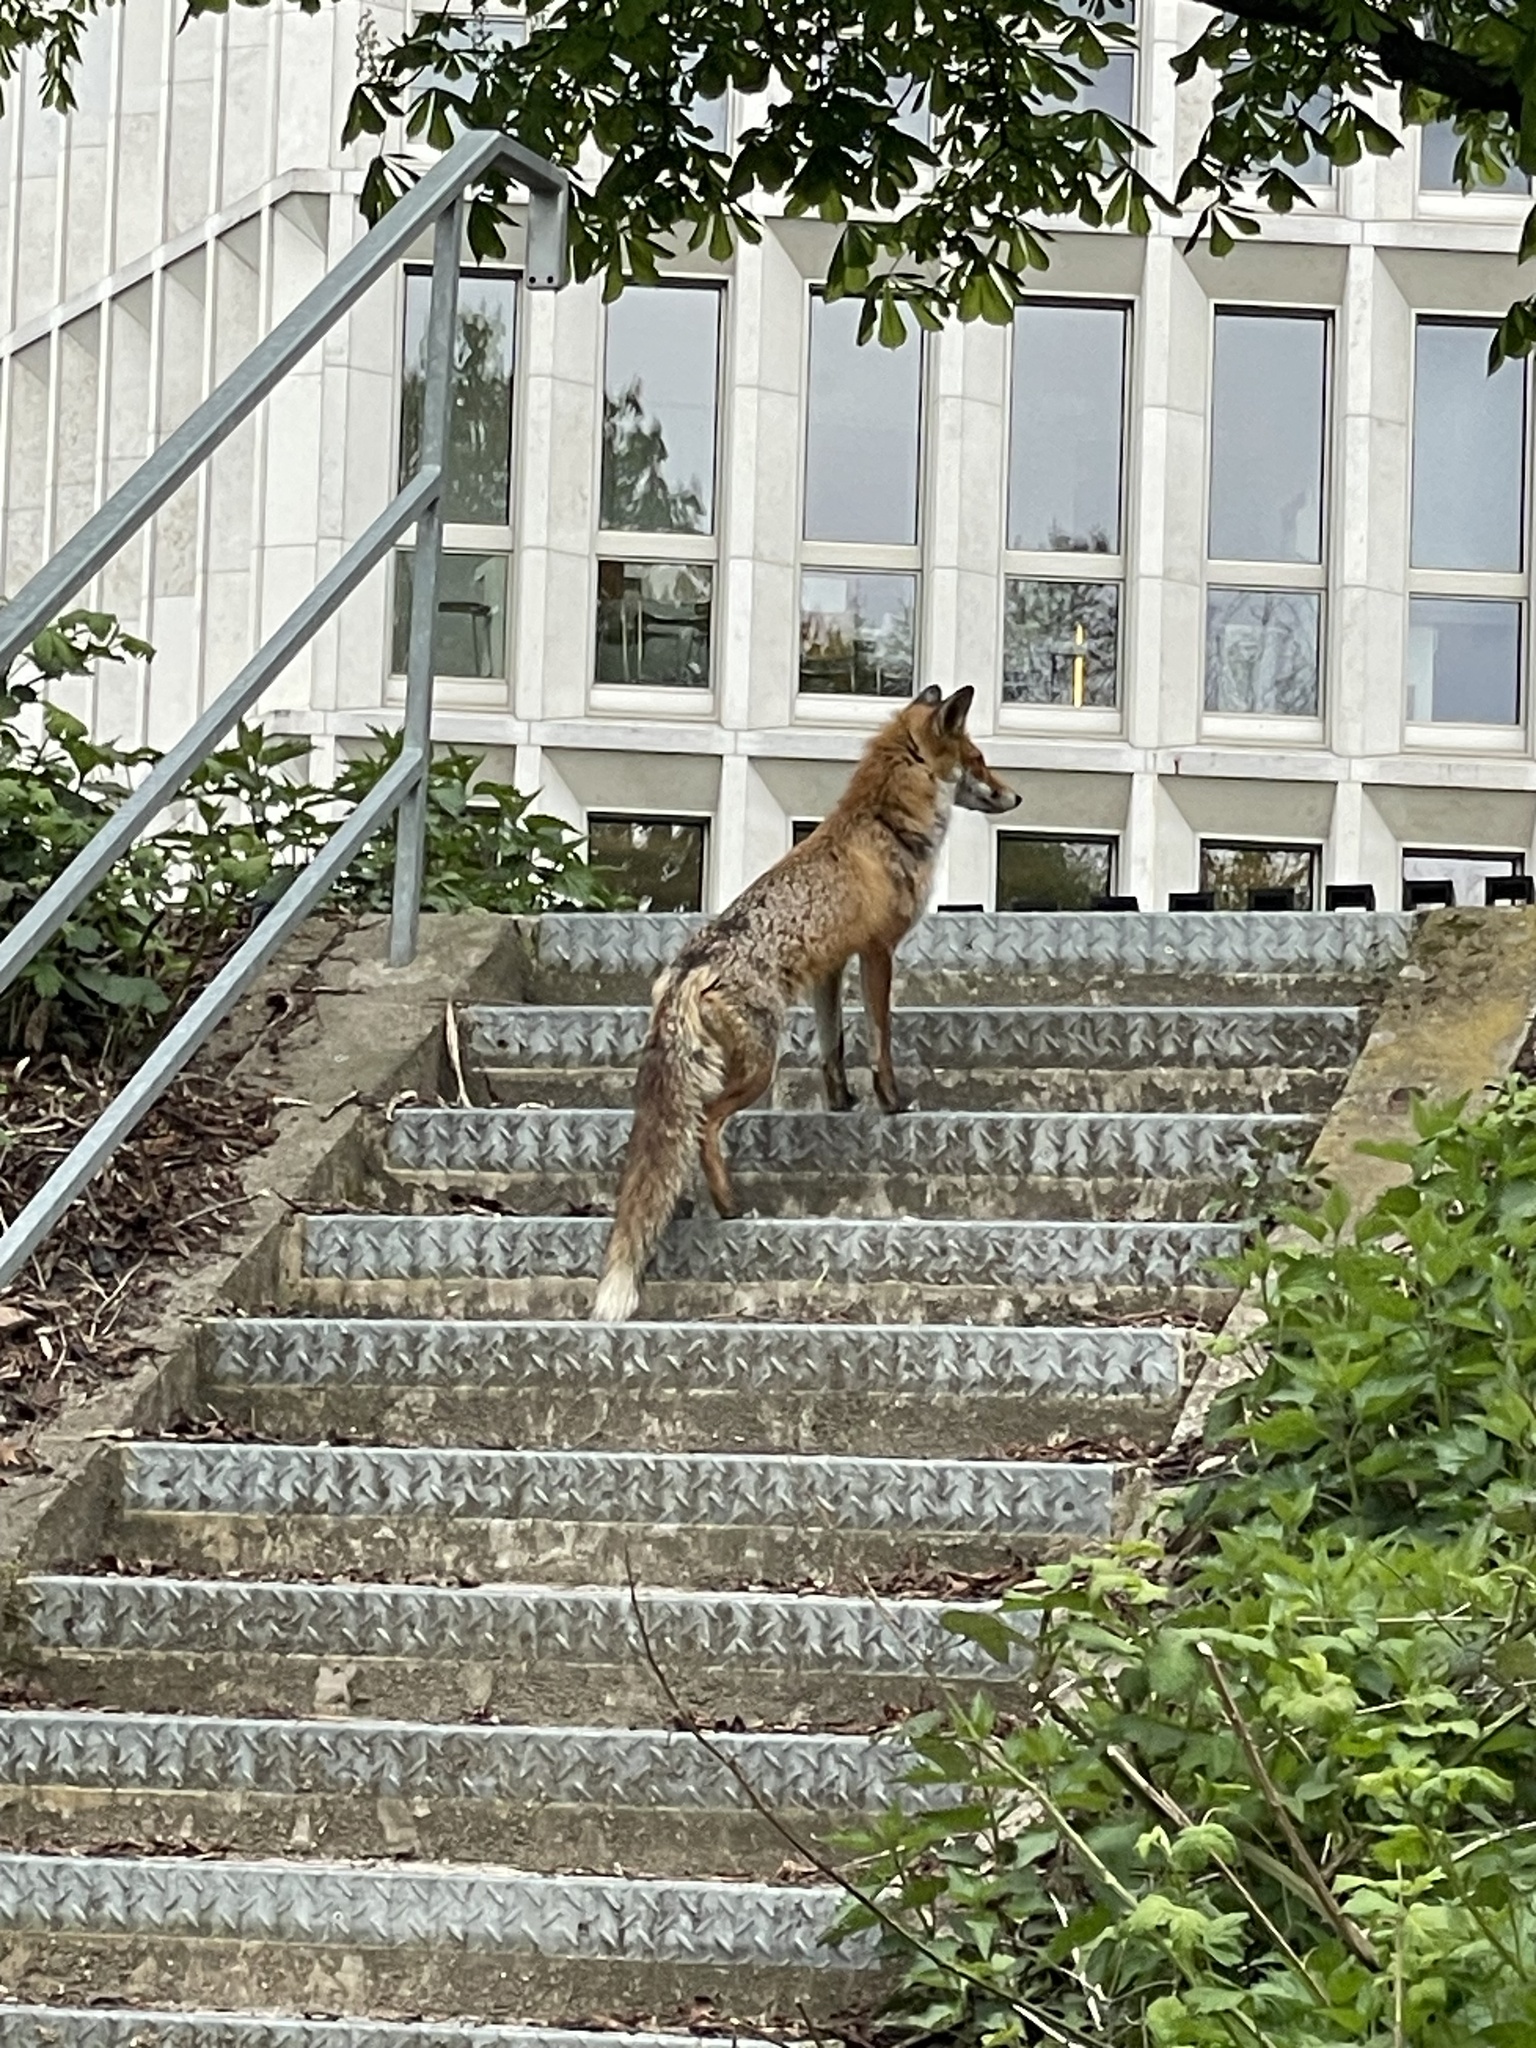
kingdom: Animalia
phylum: Chordata
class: Mammalia
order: Carnivora
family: Canidae
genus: Vulpes
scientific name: Vulpes vulpes
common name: Red fox
